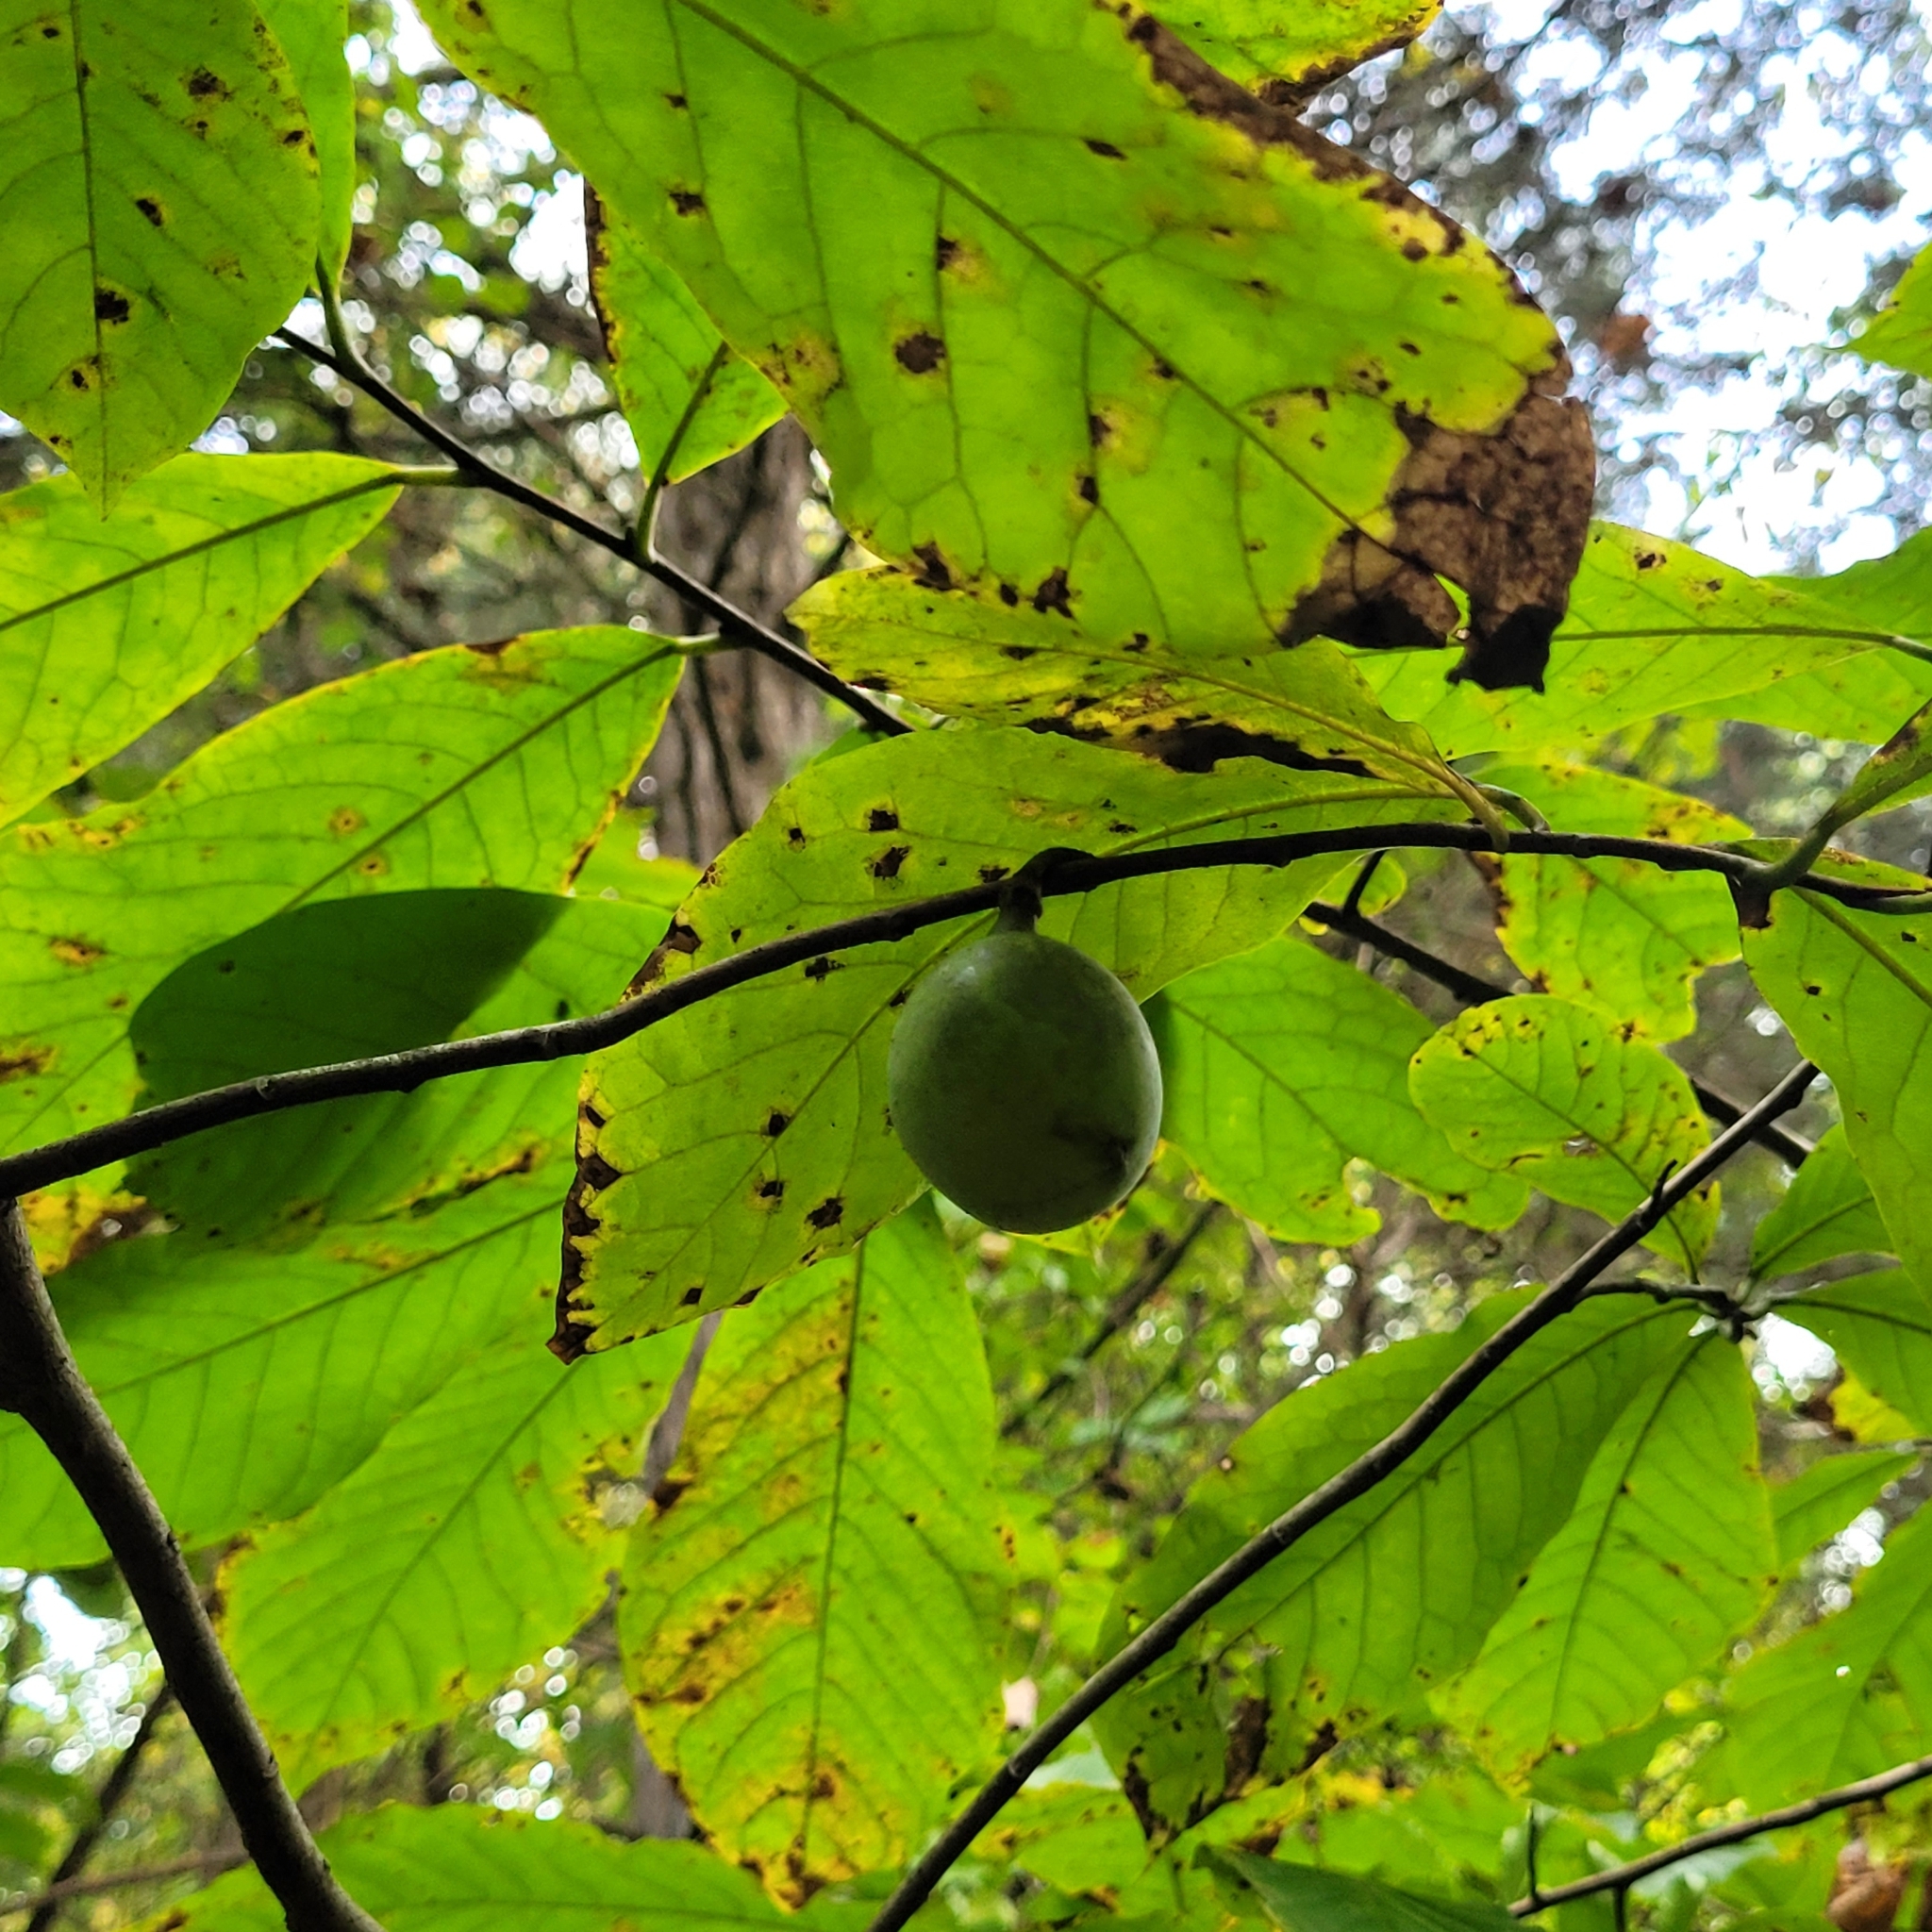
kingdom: Plantae
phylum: Tracheophyta
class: Magnoliopsida
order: Magnoliales
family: Annonaceae
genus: Asimina
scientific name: Asimina triloba
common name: Dog-banana
